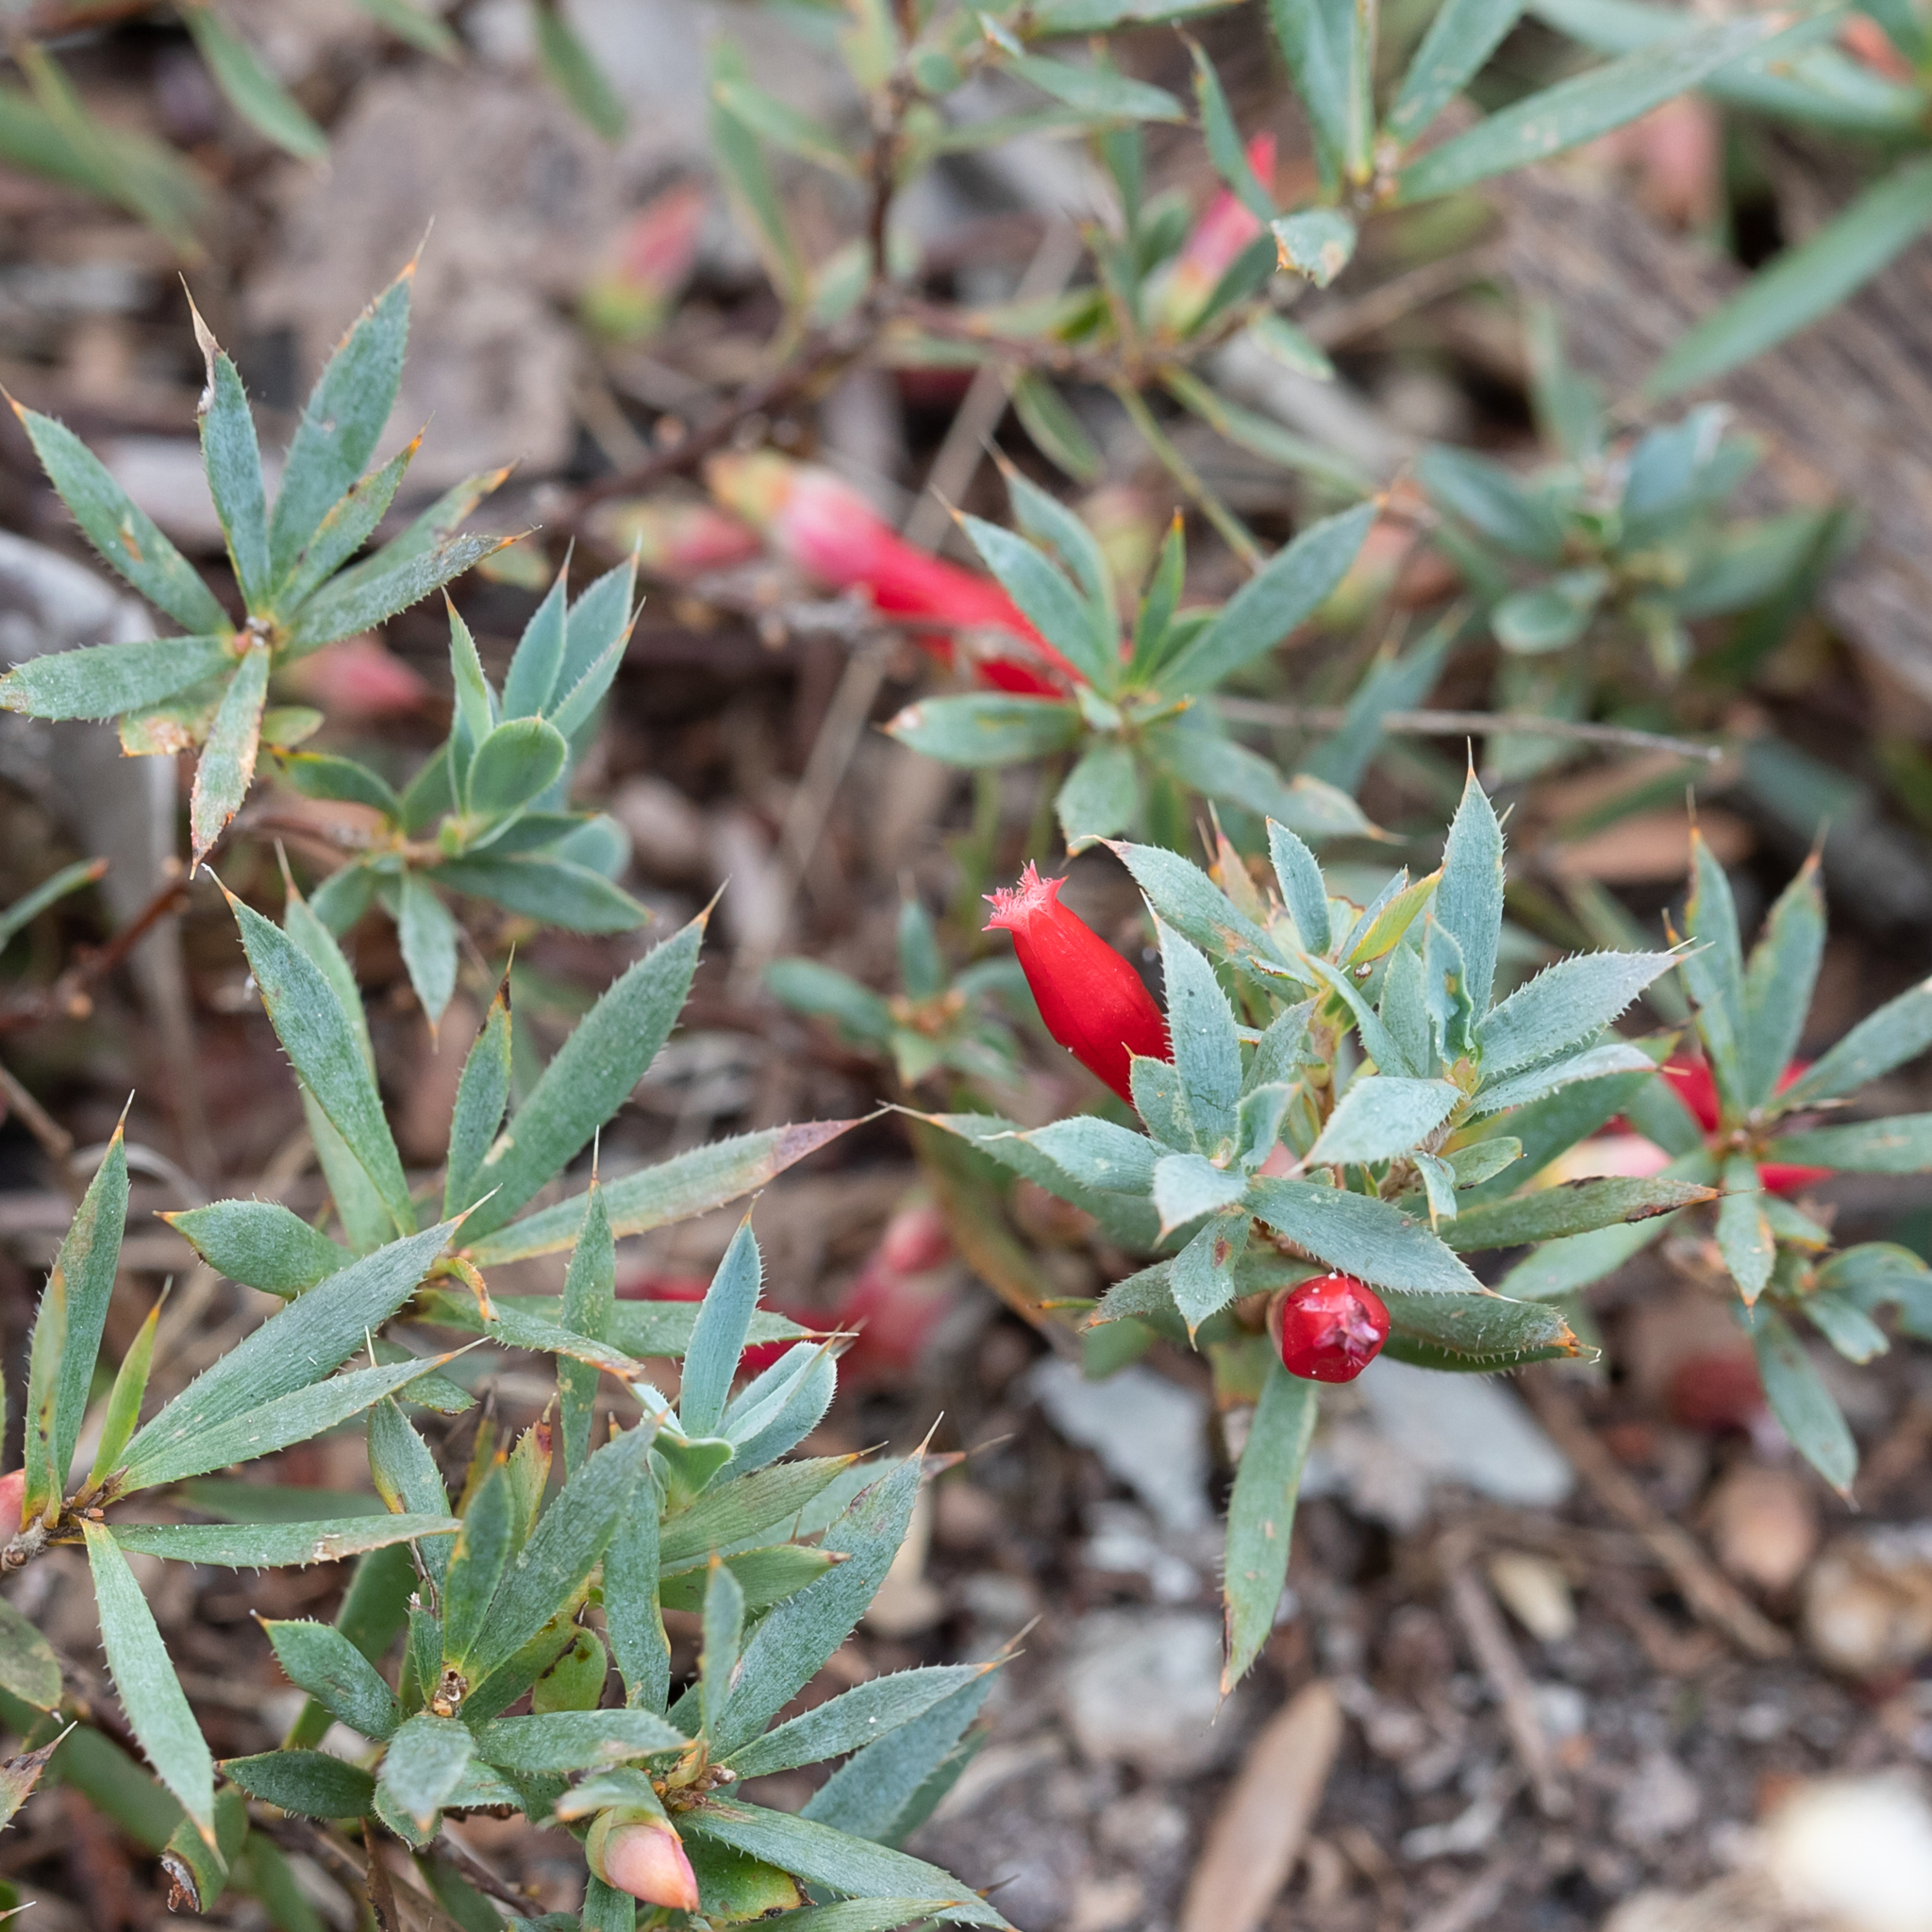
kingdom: Plantae
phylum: Tracheophyta
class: Magnoliopsida
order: Ericales
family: Ericaceae
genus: Styphelia
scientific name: Styphelia humifusa
